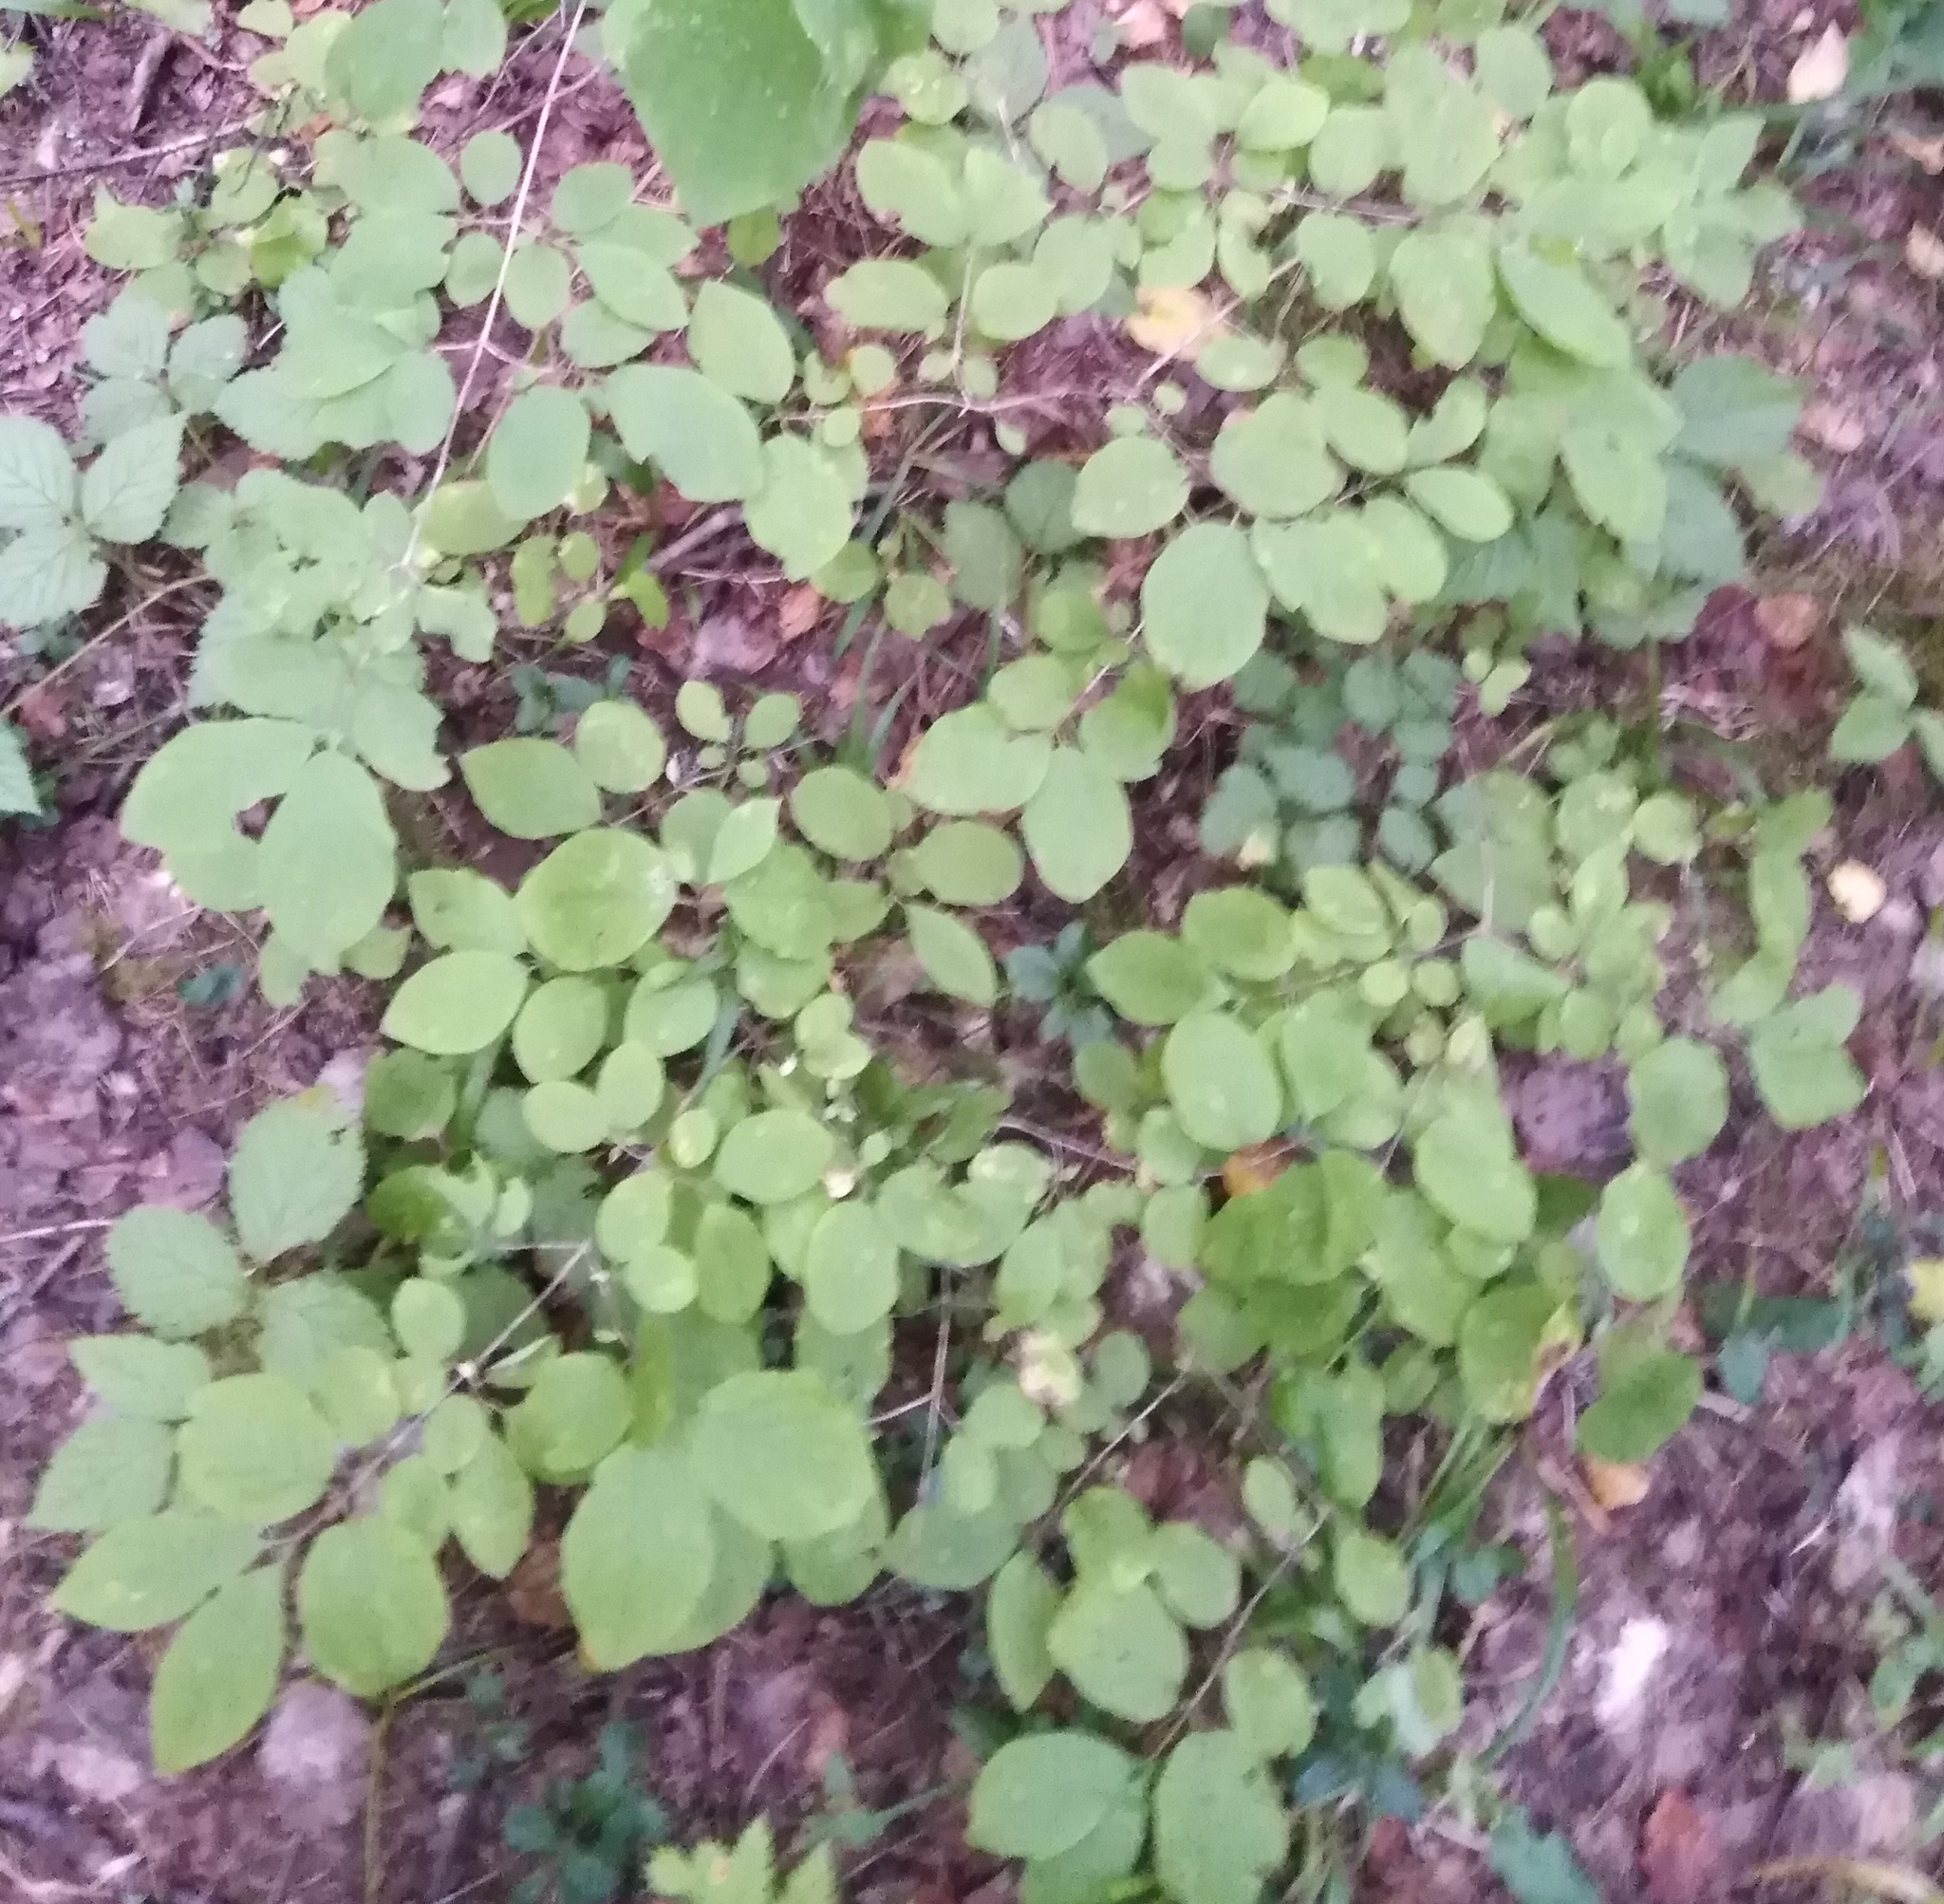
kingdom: Plantae
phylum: Tracheophyta
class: Magnoliopsida
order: Dipsacales
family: Caprifoliaceae
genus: Lonicera
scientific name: Lonicera xylosteum
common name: Fly honeysuckle
